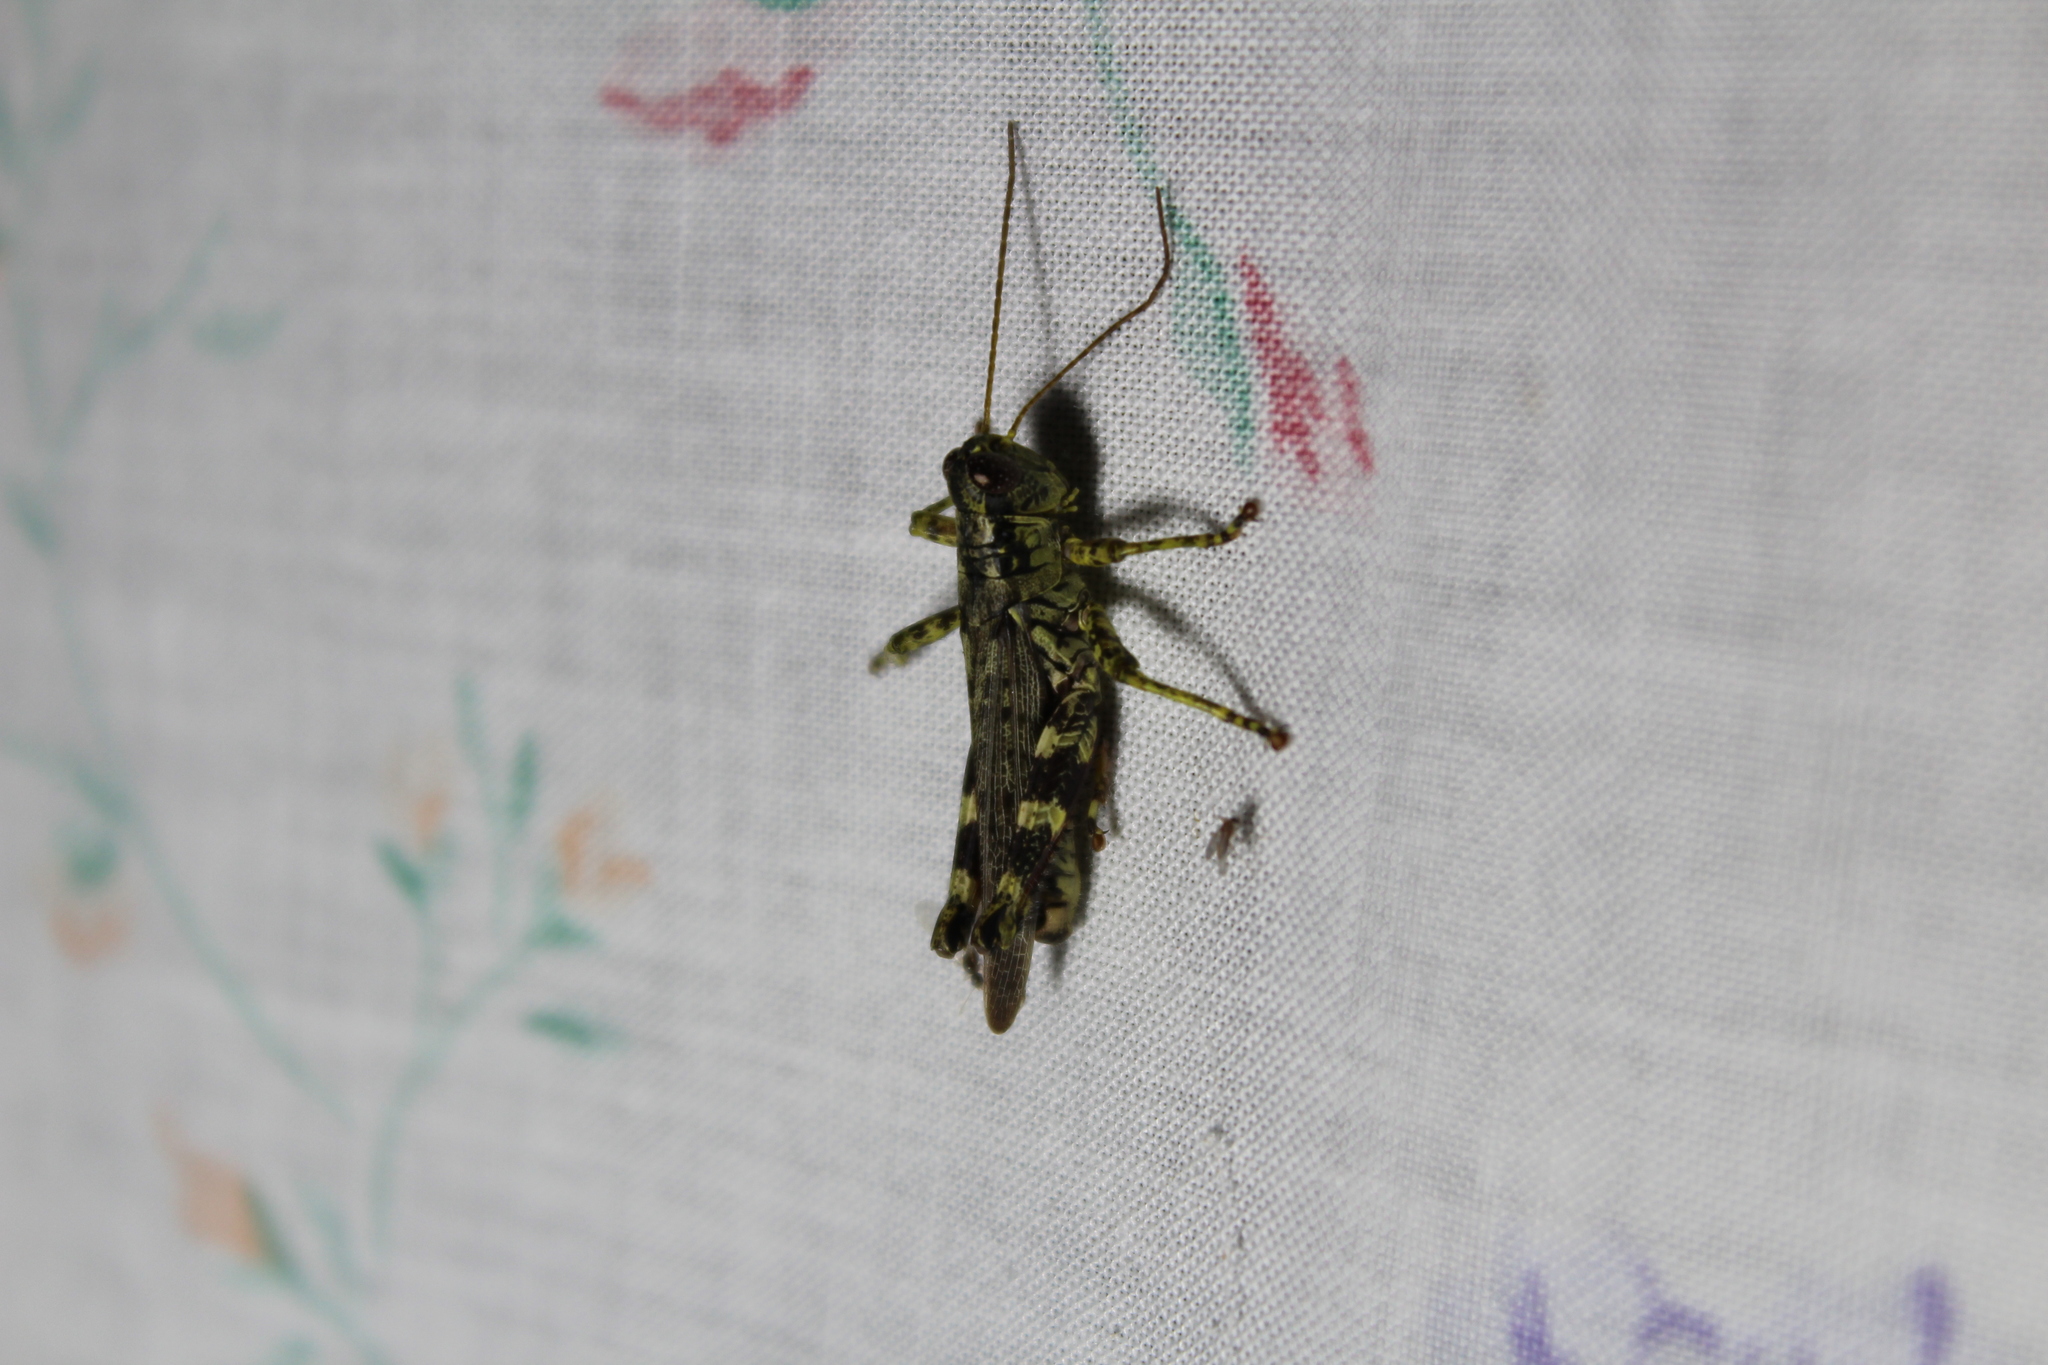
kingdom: Animalia
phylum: Arthropoda
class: Insecta
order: Orthoptera
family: Acrididae
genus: Melanoplus
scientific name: Melanoplus punctulatus
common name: Pine-tree spur-throat grasshopper
